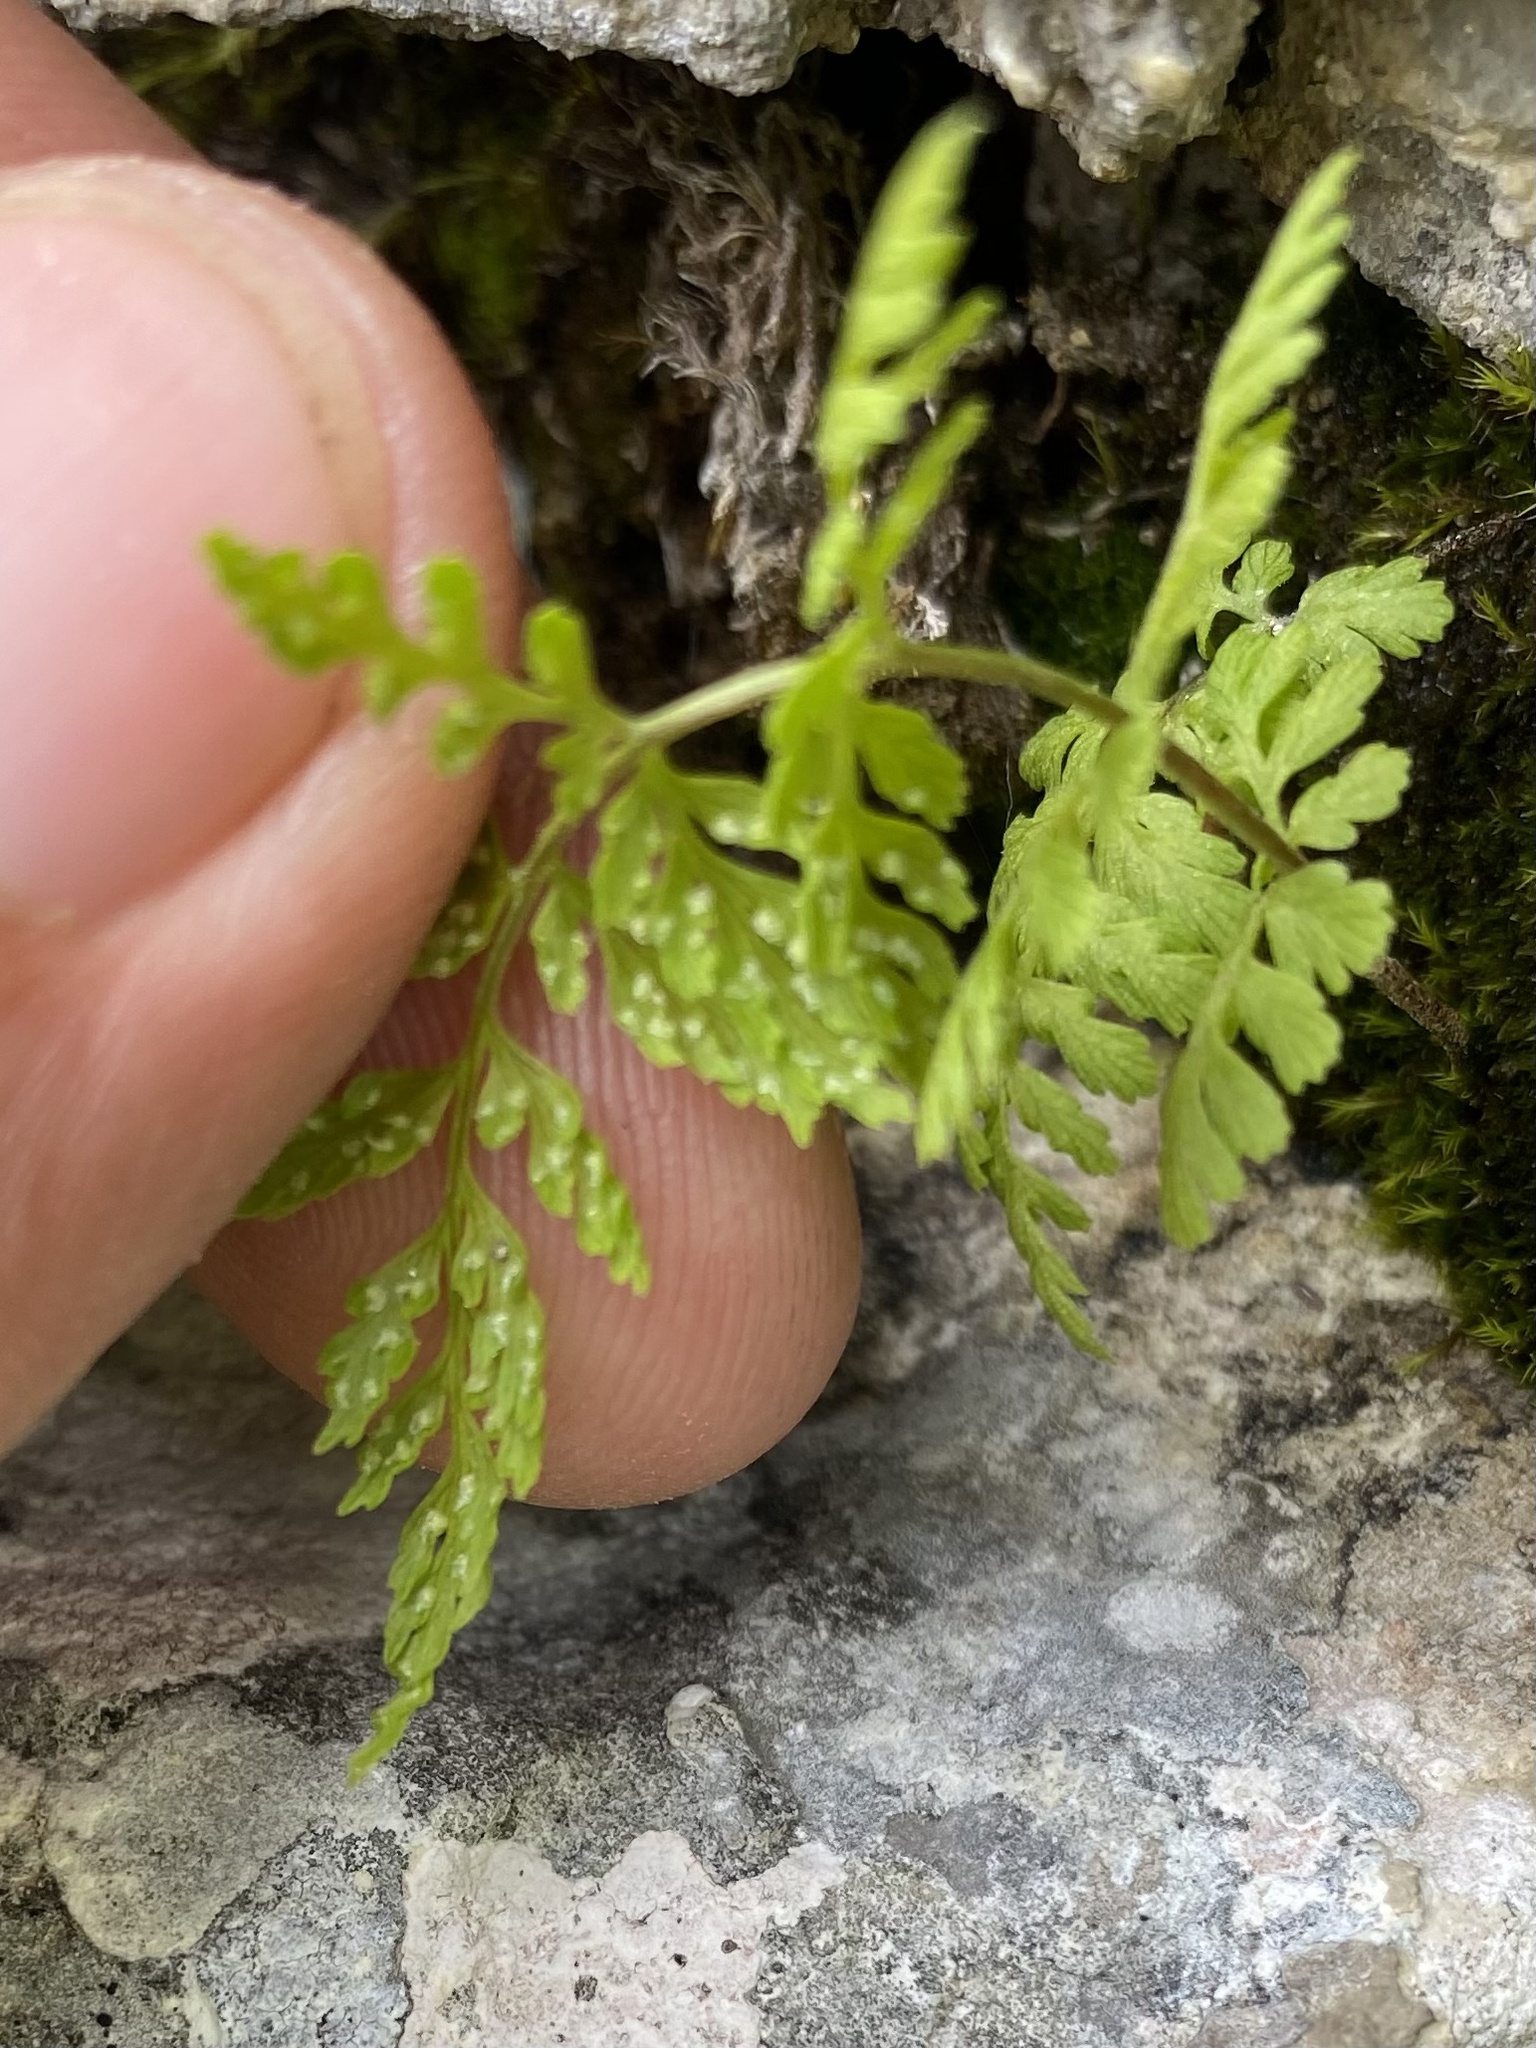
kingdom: Plantae
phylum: Tracheophyta
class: Polypodiopsida
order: Polypodiales
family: Cystopteridaceae
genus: Cystopteris
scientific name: Cystopteris fragilis
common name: Brittle bladder fern
